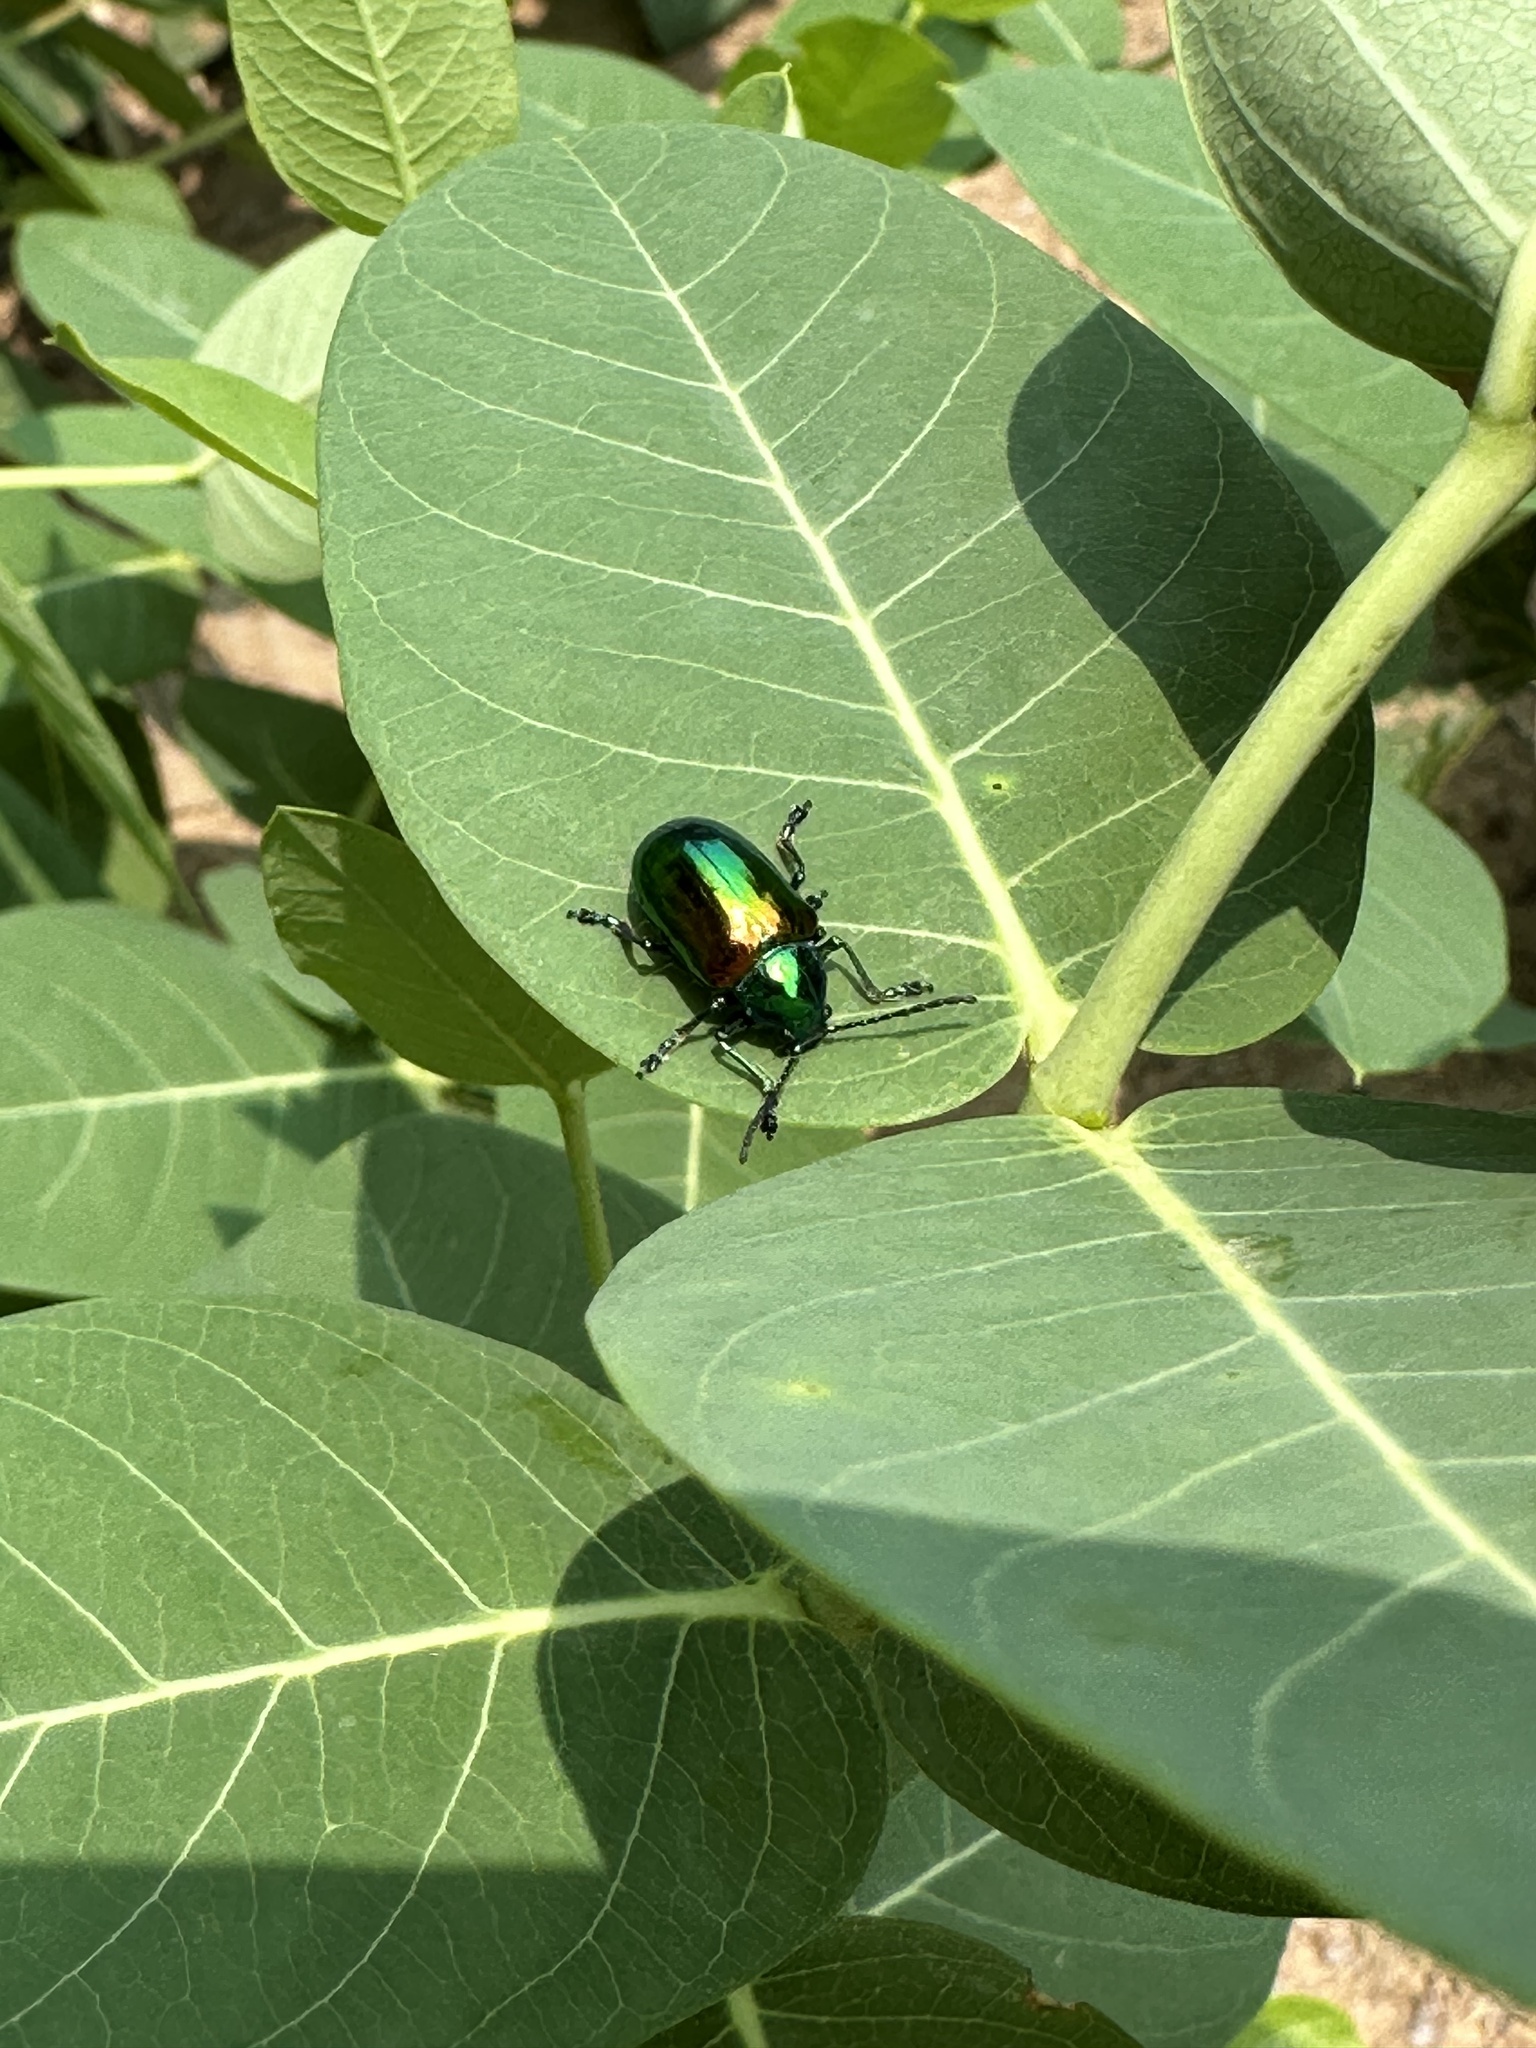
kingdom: Animalia
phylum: Arthropoda
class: Insecta
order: Coleoptera
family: Chrysomelidae
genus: Chrysochus
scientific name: Chrysochus auratus
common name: Dogbane leaf beetle
